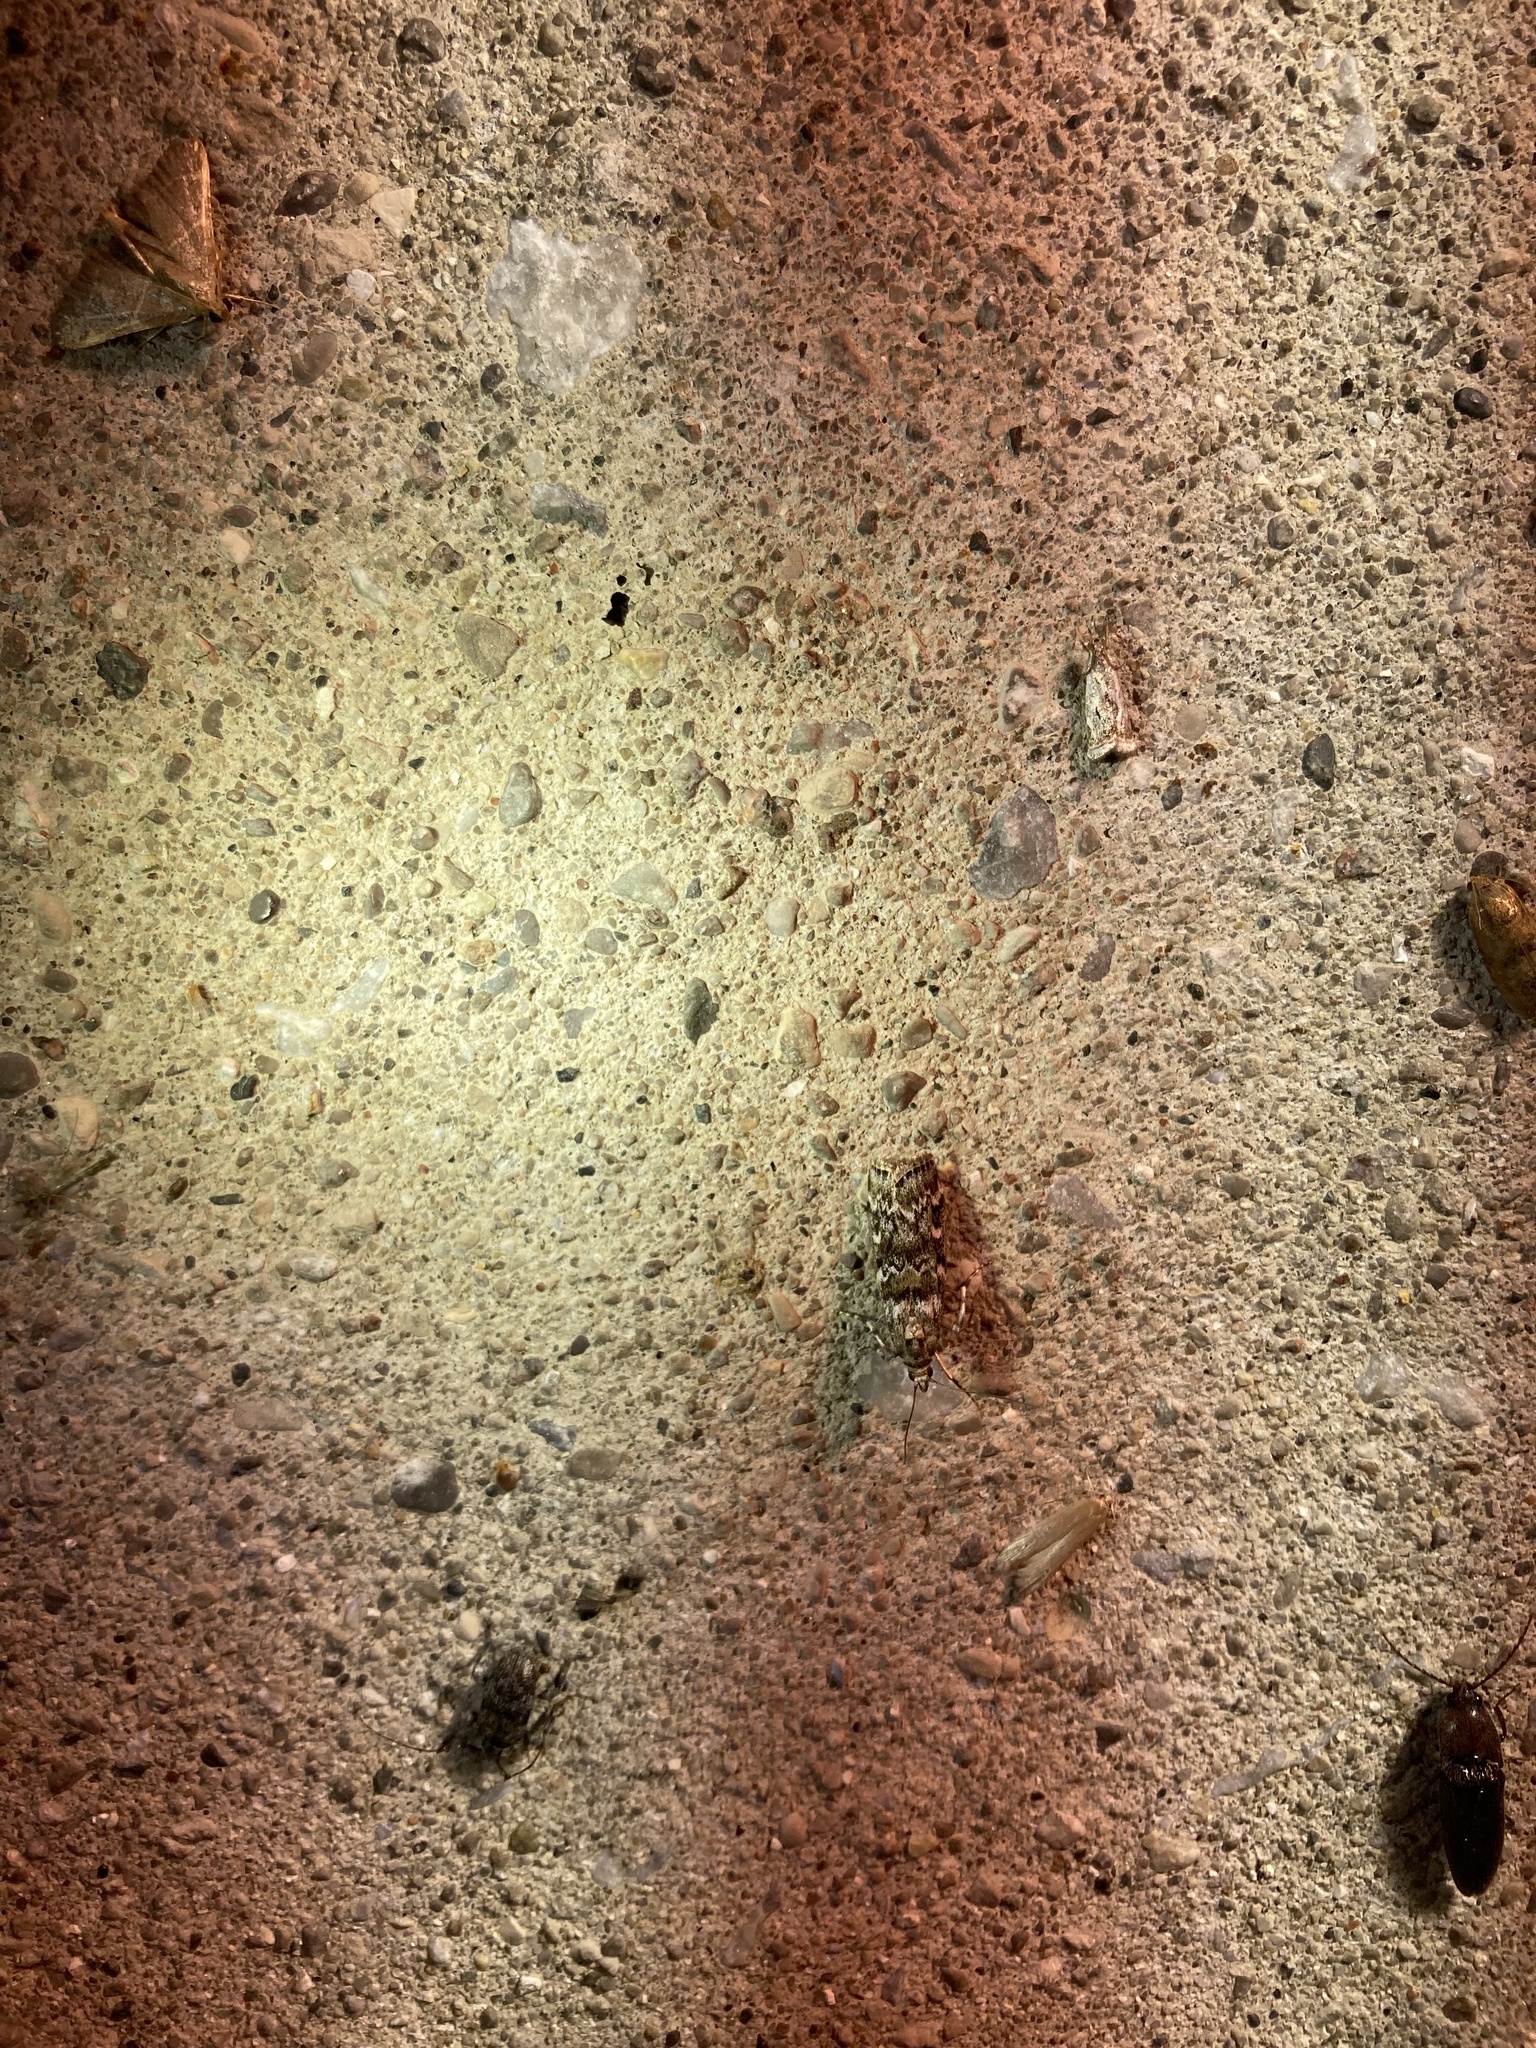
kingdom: Animalia
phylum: Arthropoda
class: Insecta
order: Lepidoptera
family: Pyralidae
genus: Dioryctria
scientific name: Dioryctria reniculelloides
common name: Spruce coneworm moth
